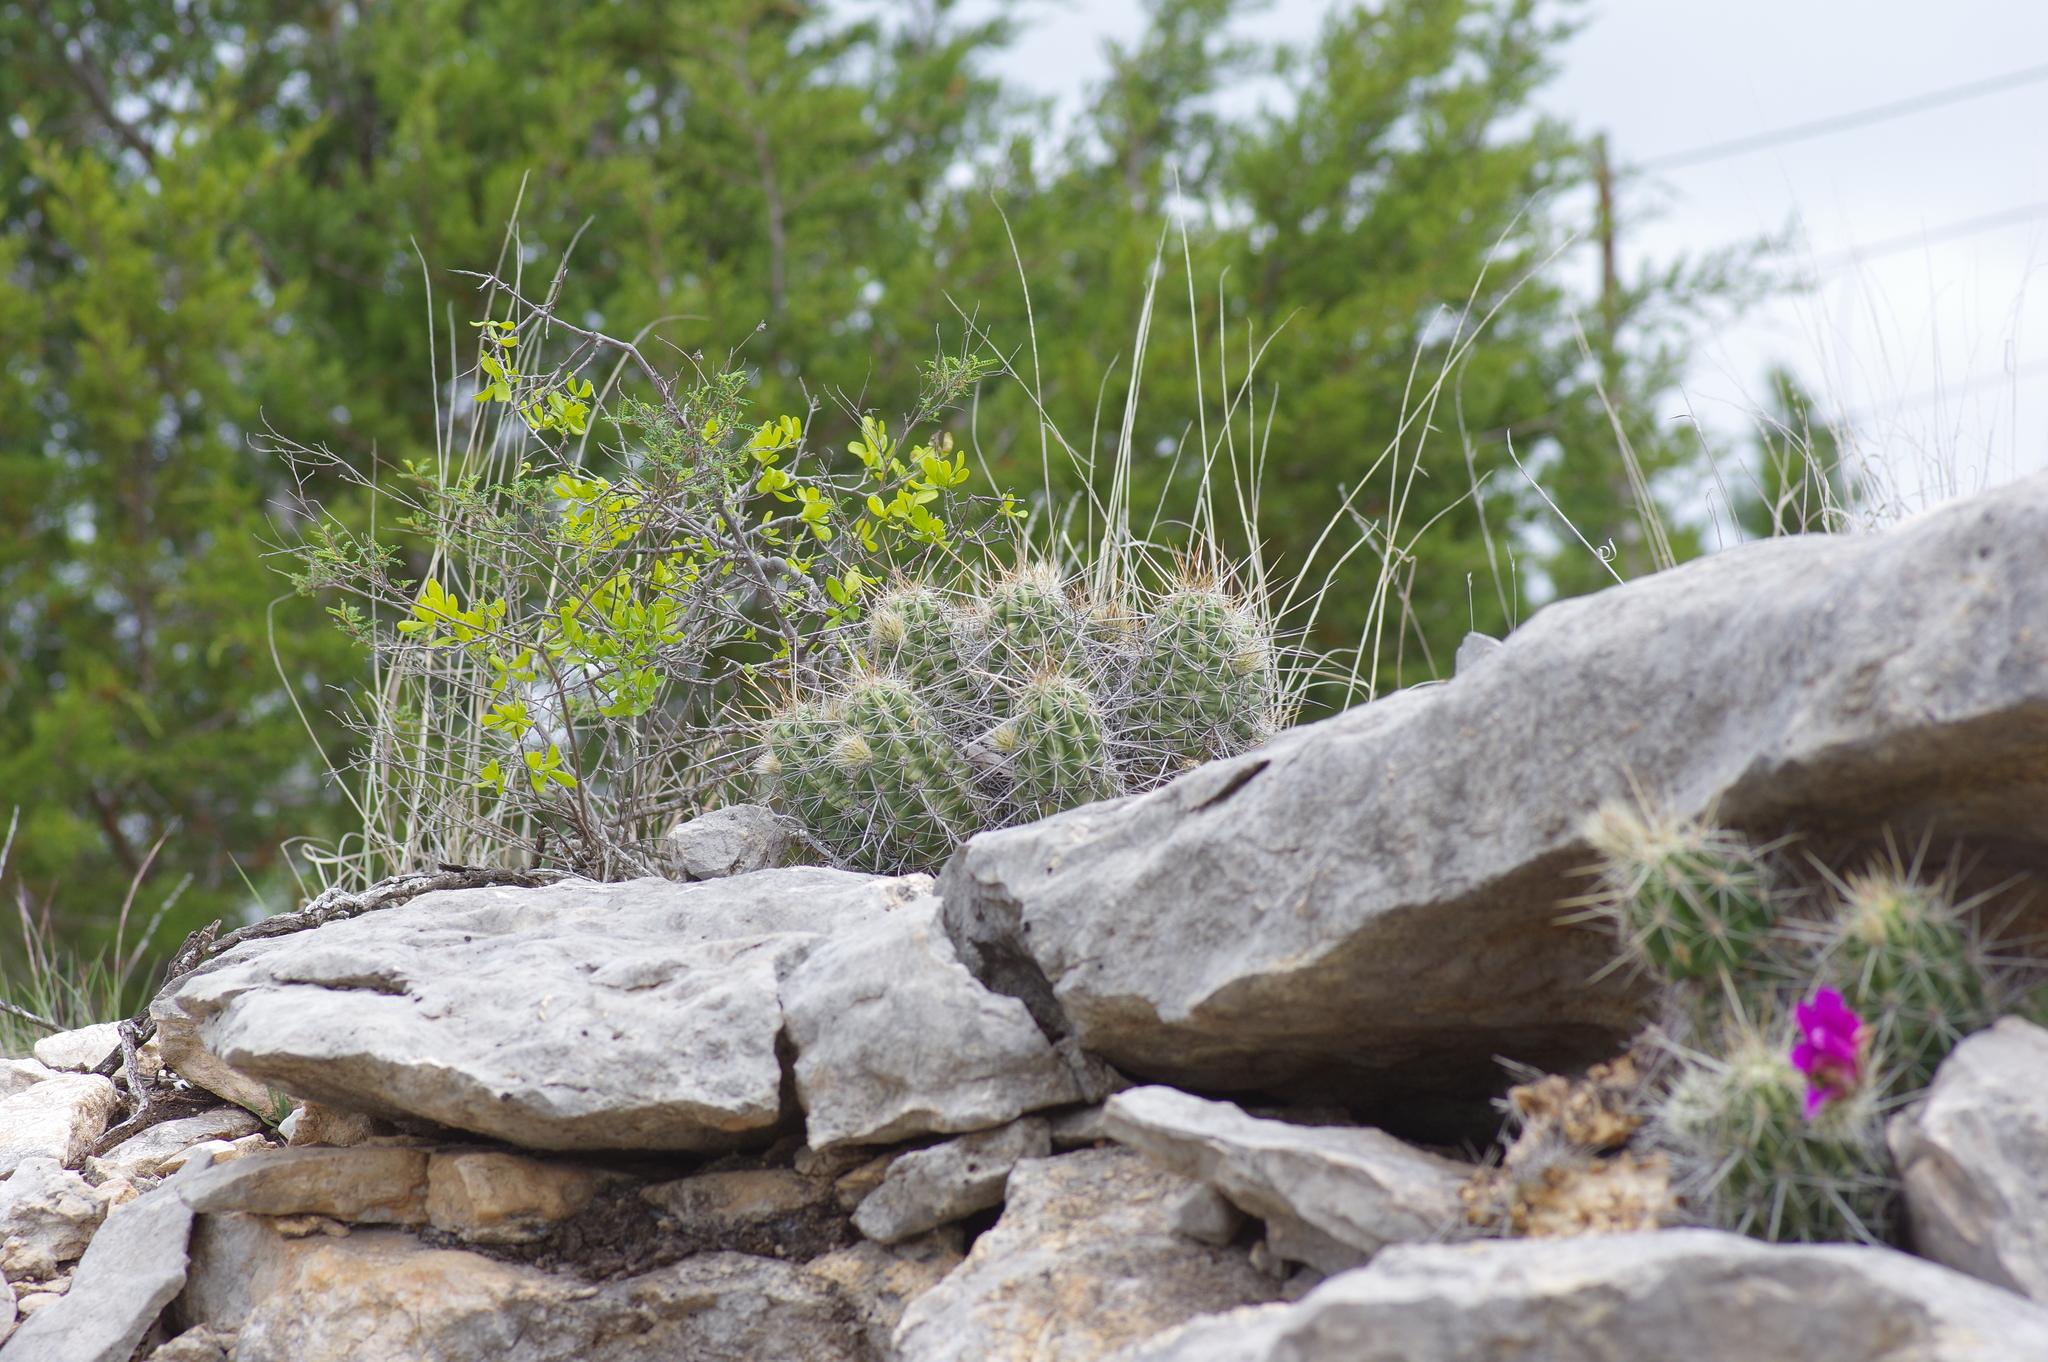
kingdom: Plantae
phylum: Tracheophyta
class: Magnoliopsida
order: Caryophyllales
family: Cactaceae
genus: Echinocereus
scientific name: Echinocereus enneacanthus
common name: Pitaya
